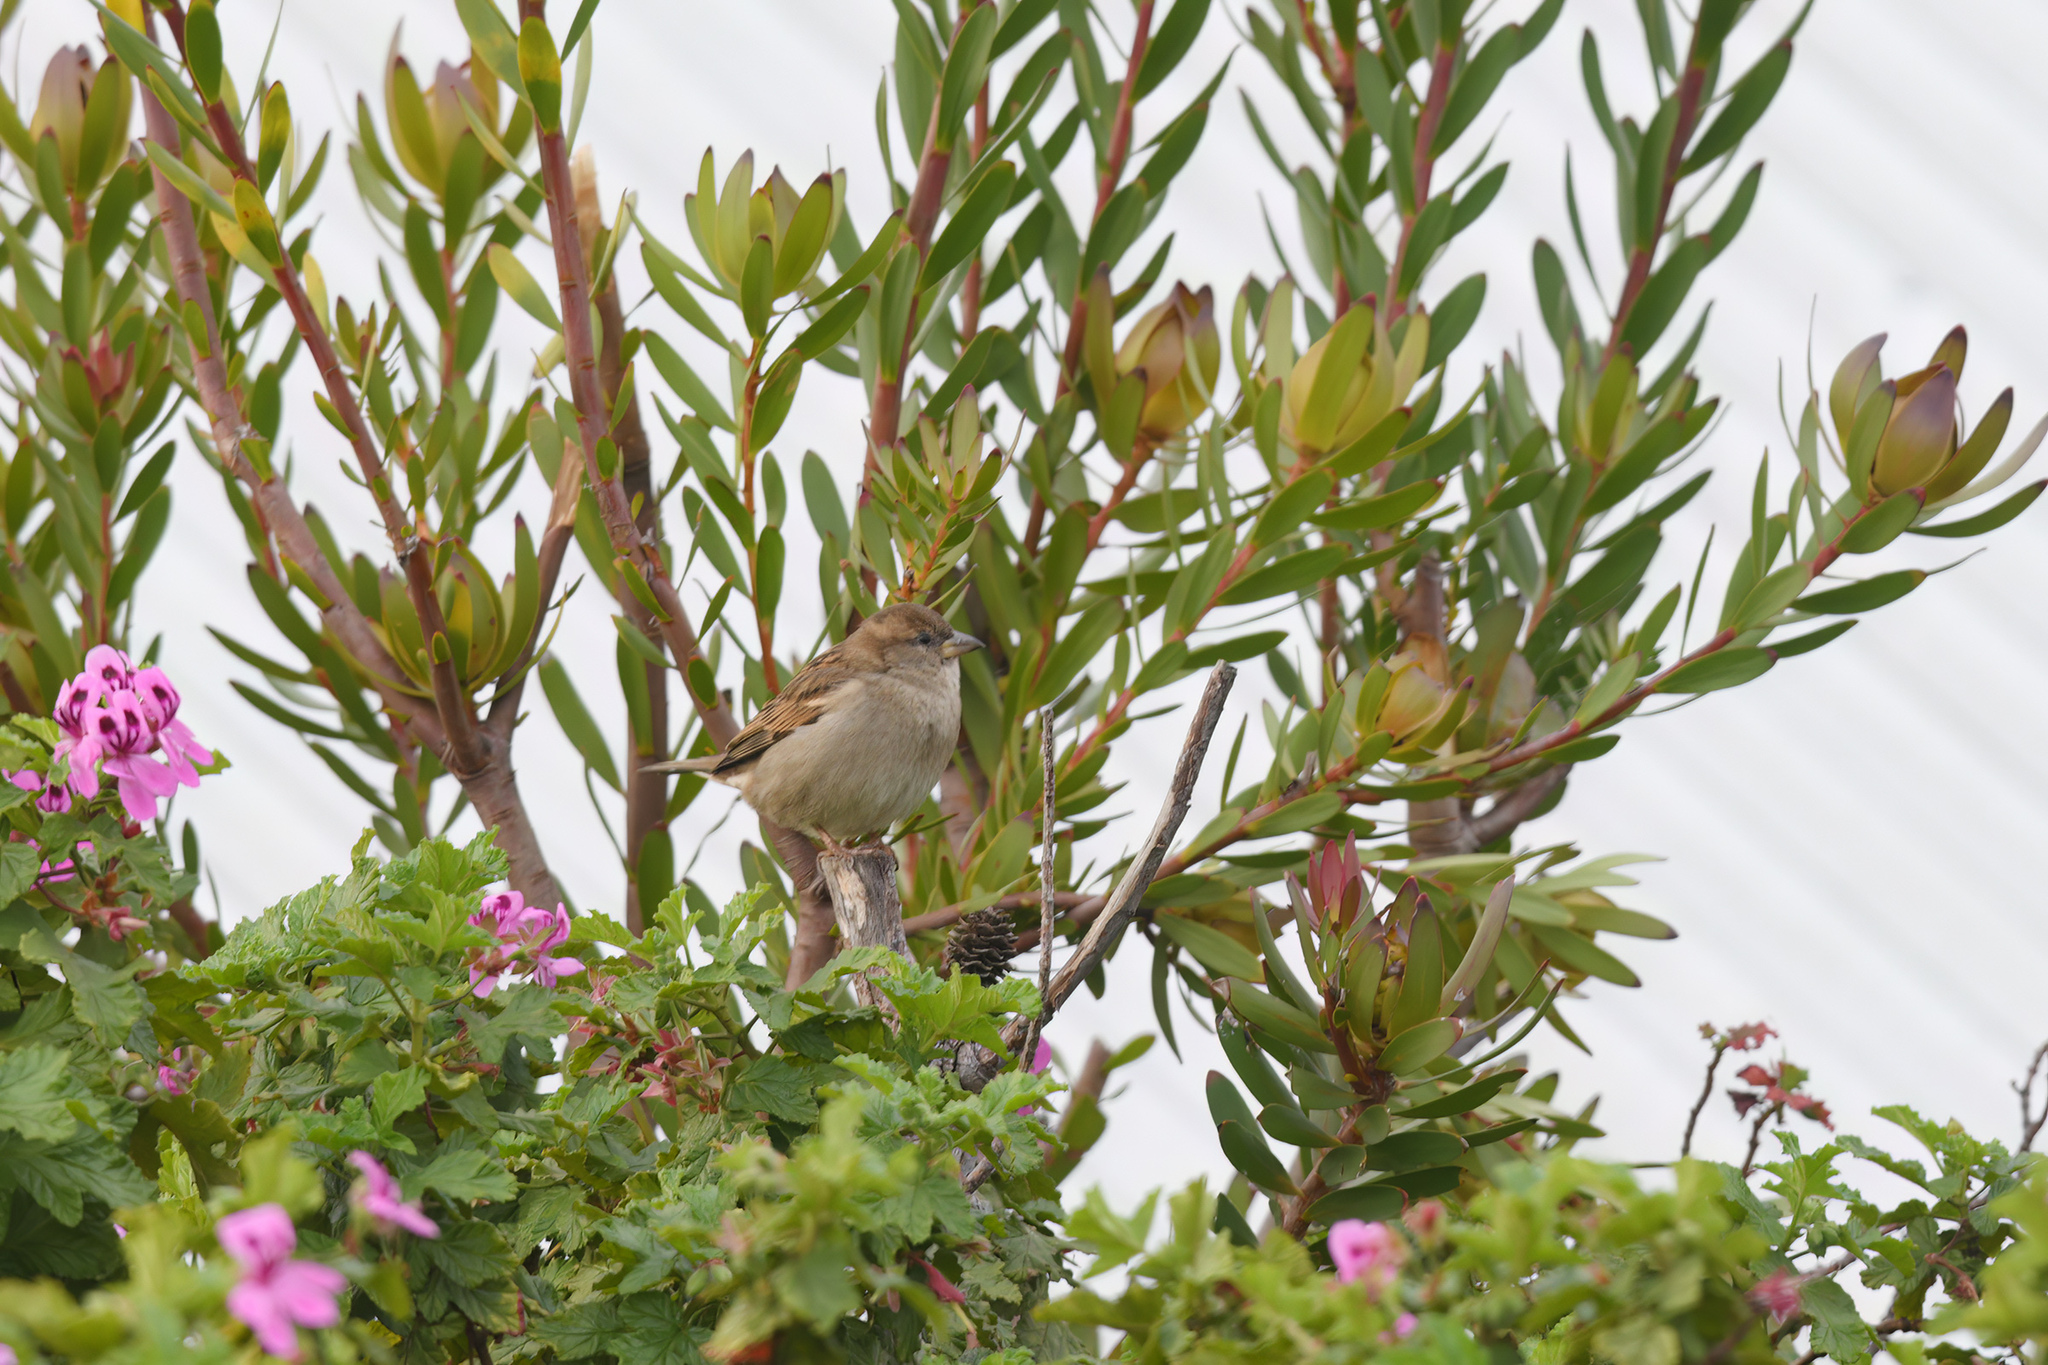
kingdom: Animalia
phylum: Chordata
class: Aves
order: Passeriformes
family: Passeridae
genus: Passer
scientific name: Passer domesticus
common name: House sparrow
